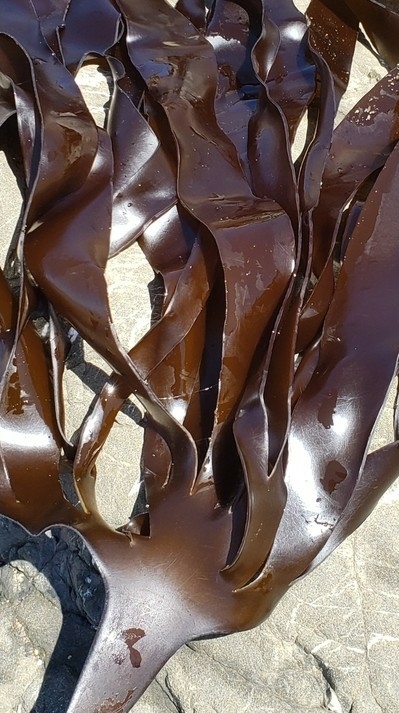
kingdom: Chromista
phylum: Ochrophyta
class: Phaeophyceae
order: Laminariales
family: Laminariaceae
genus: Laminaria
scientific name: Laminaria setchellii
